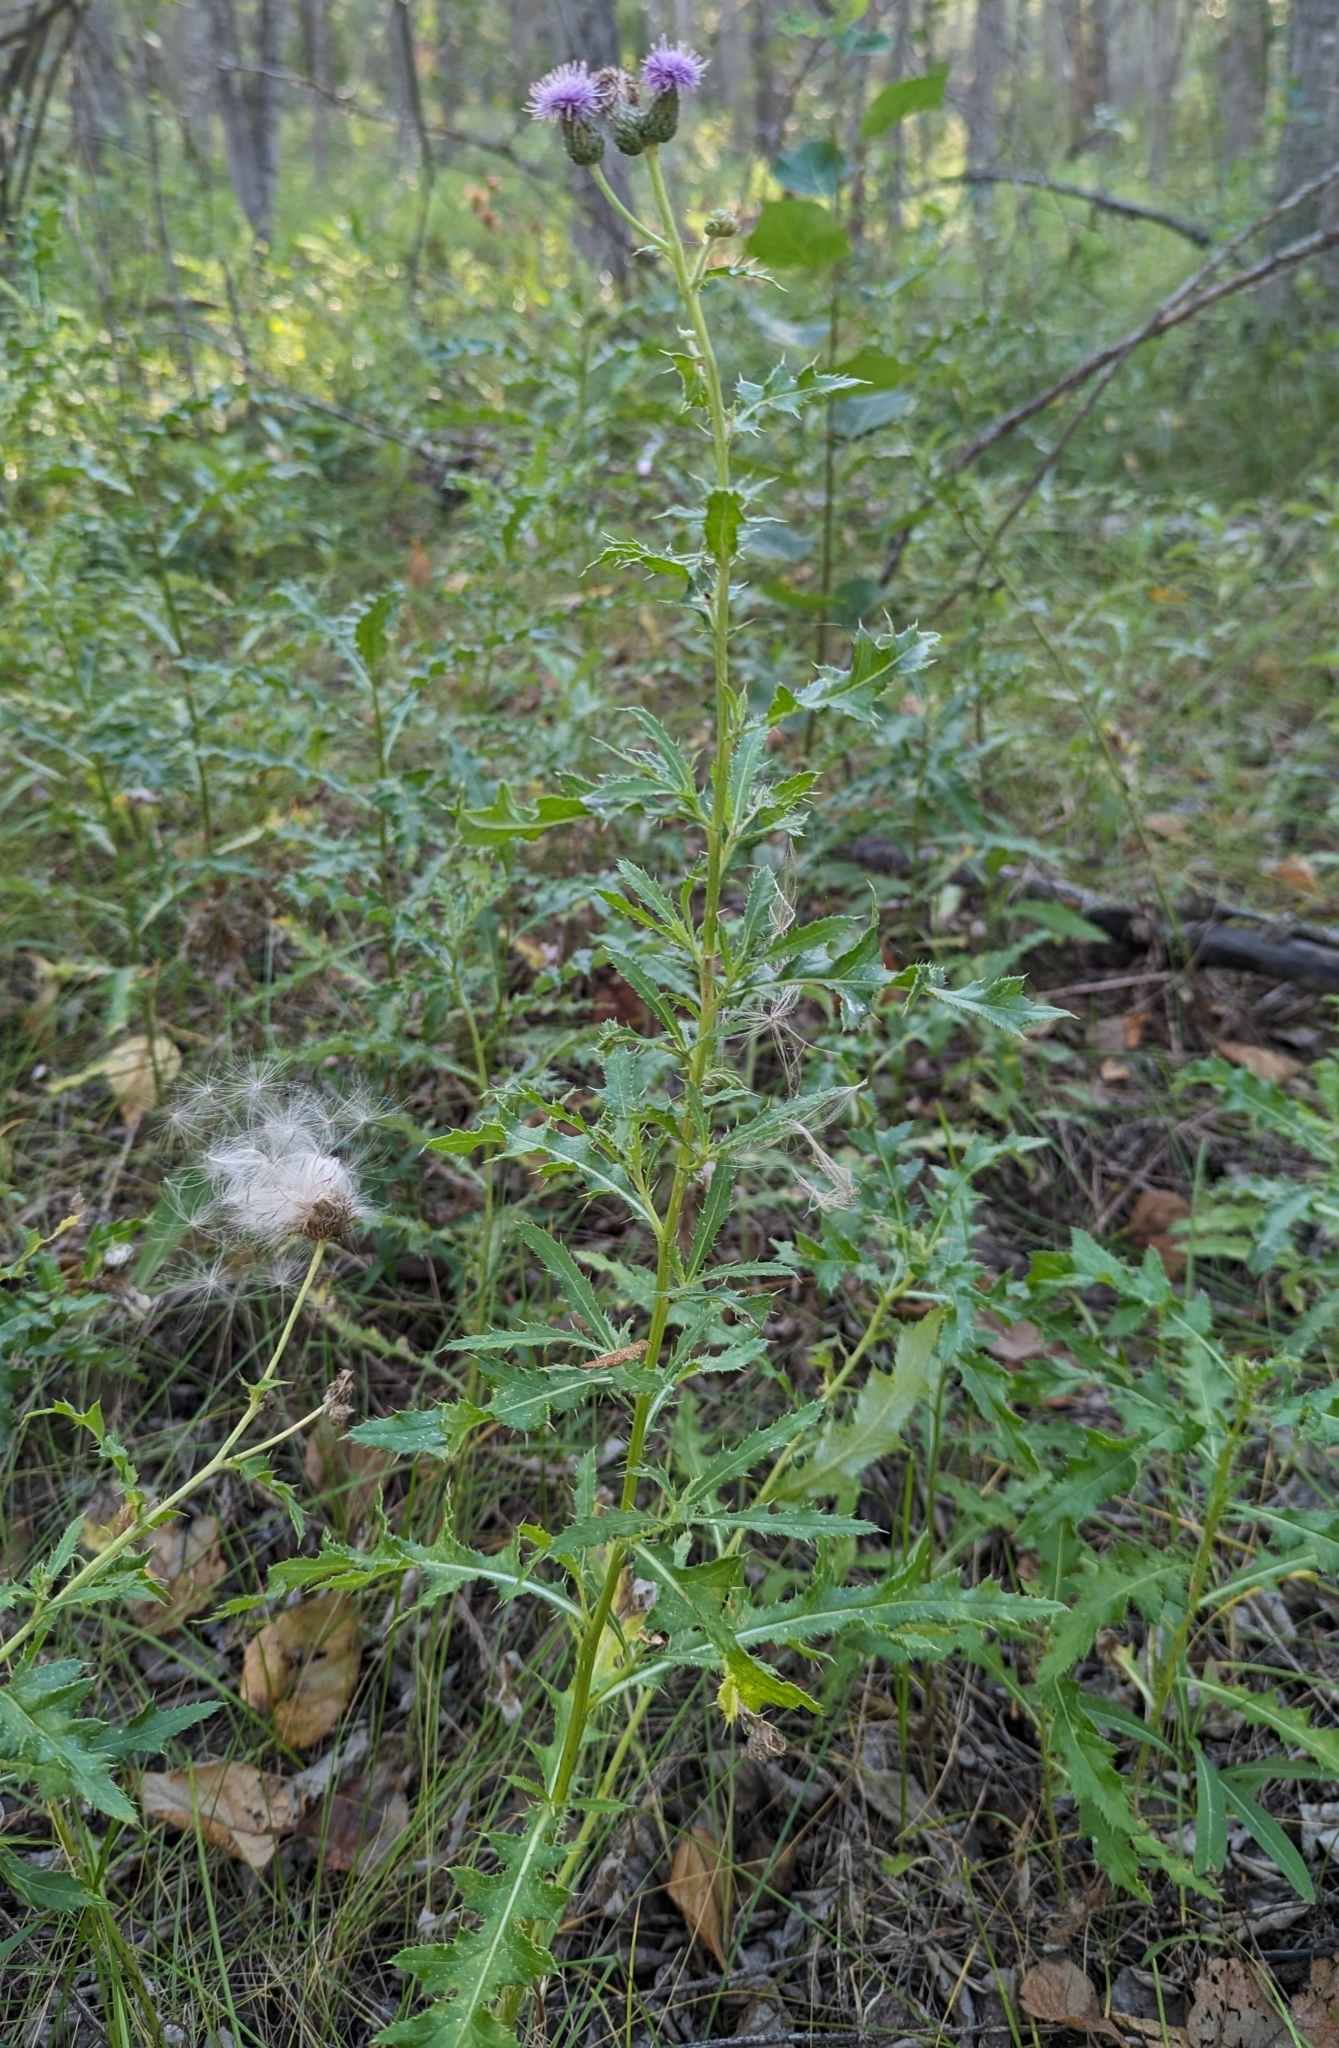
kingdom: Plantae
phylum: Tracheophyta
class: Magnoliopsida
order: Asterales
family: Asteraceae
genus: Cirsium
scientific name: Cirsium arvense
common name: Creeping thistle
